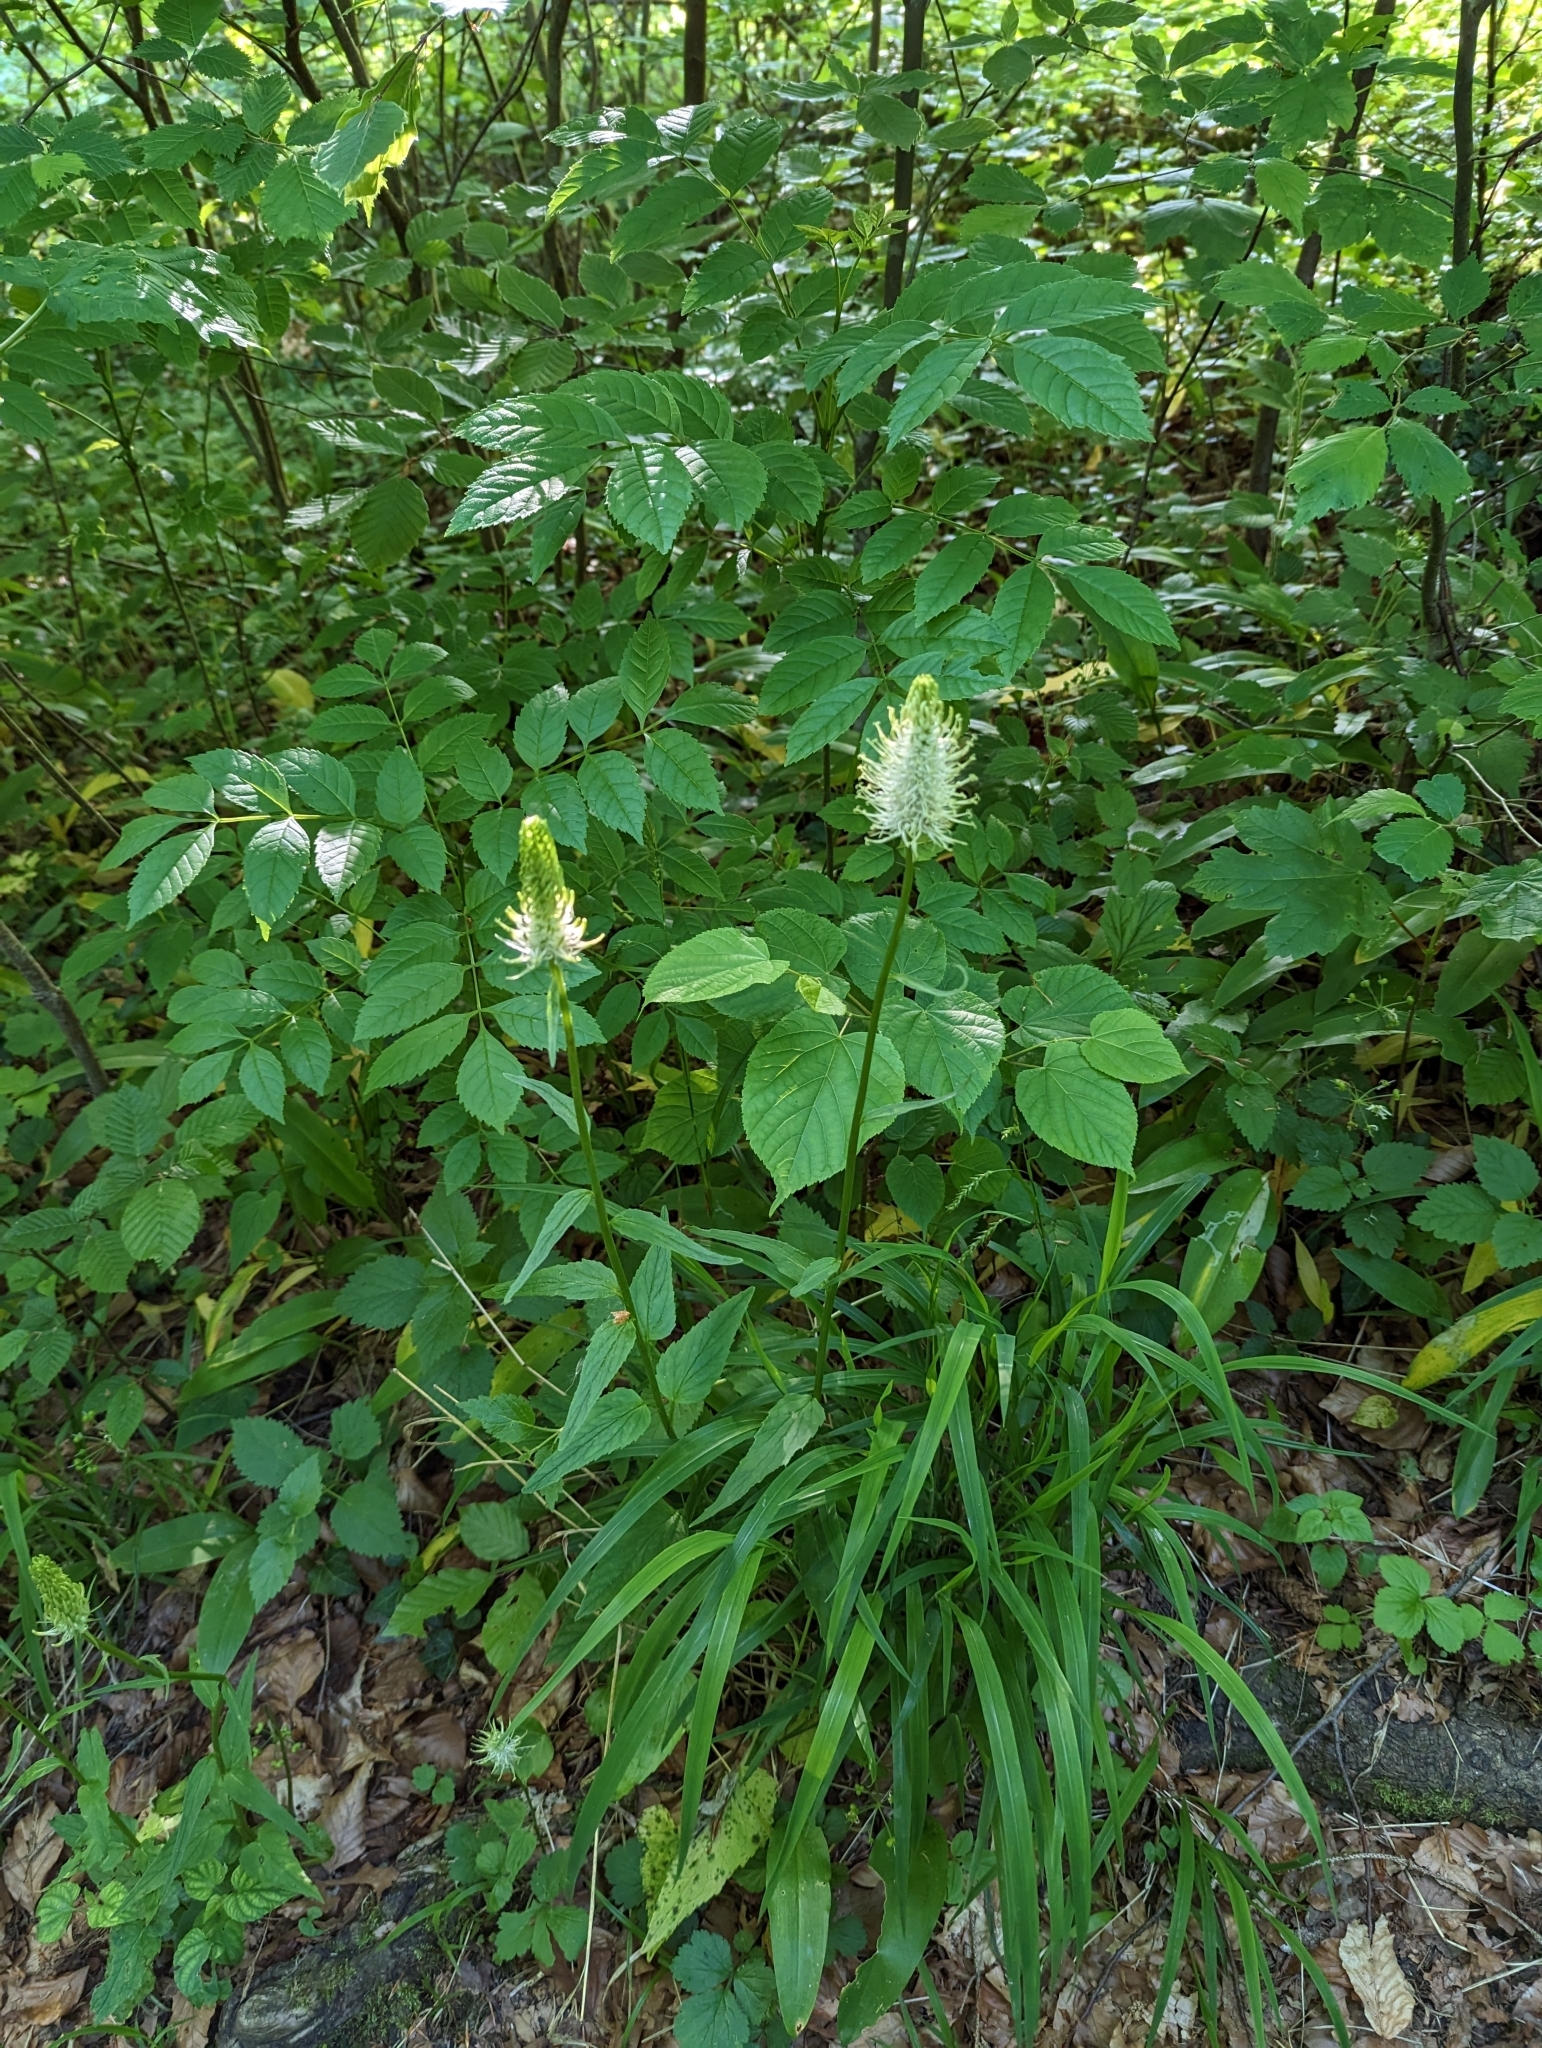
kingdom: Plantae
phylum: Tracheophyta
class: Magnoliopsida
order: Asterales
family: Campanulaceae
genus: Phyteuma
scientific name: Phyteuma spicatum
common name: Spiked rampion
